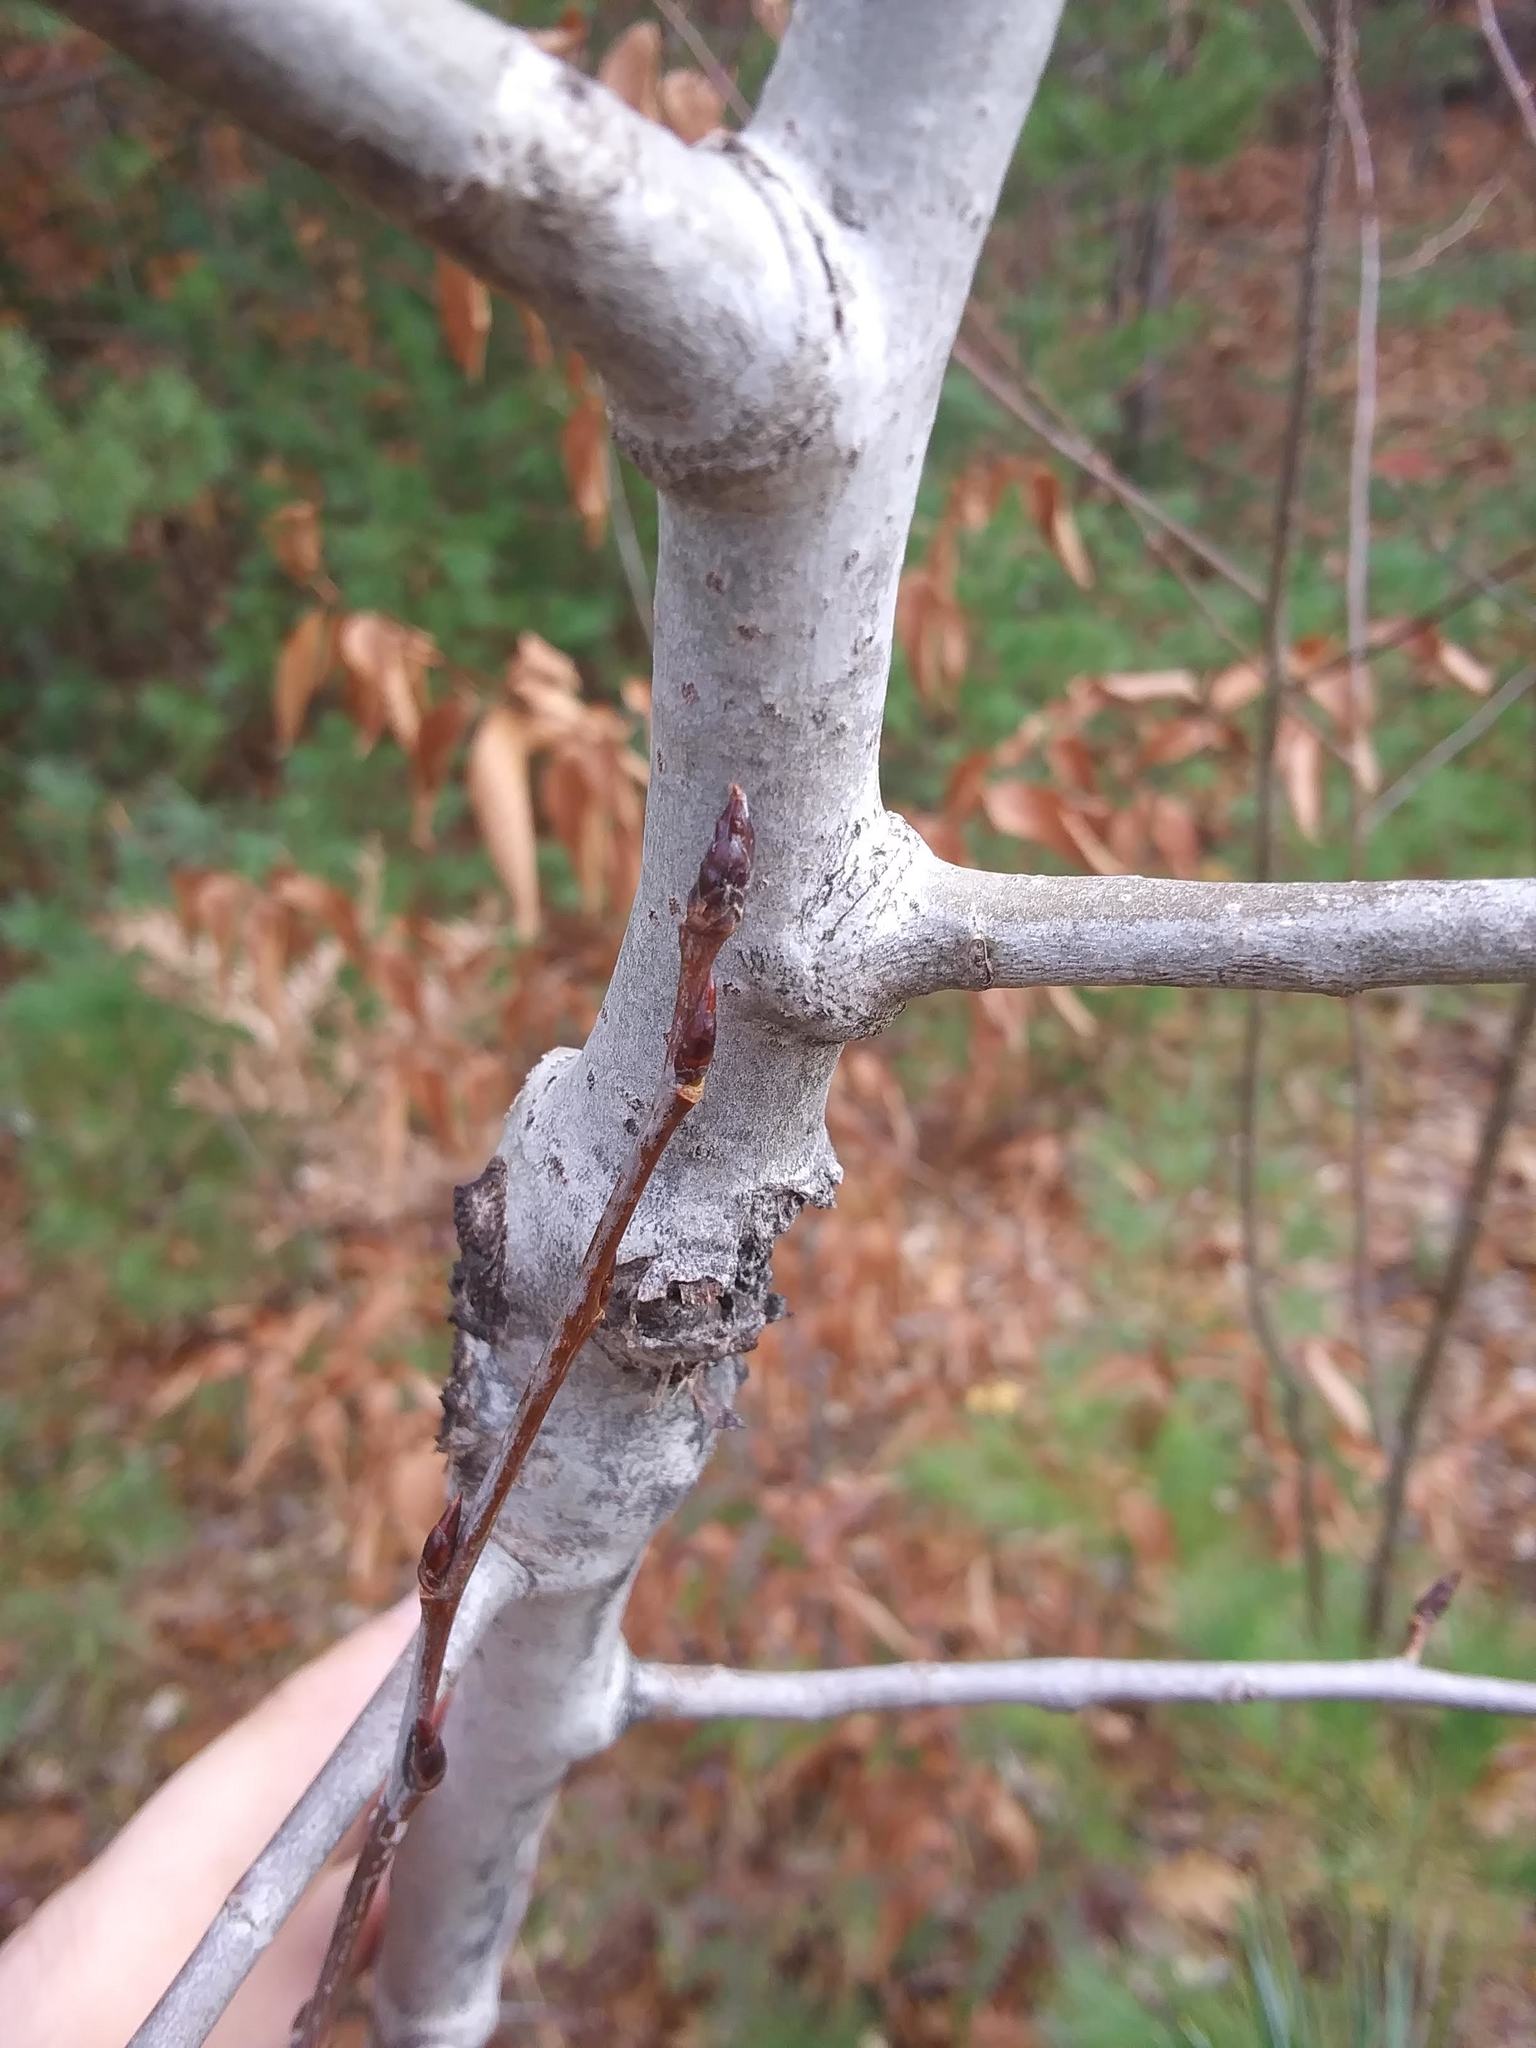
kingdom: Plantae
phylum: Tracheophyta
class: Magnoliopsida
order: Malpighiales
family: Salicaceae
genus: Populus
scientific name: Populus tremuloides
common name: Quaking aspen
